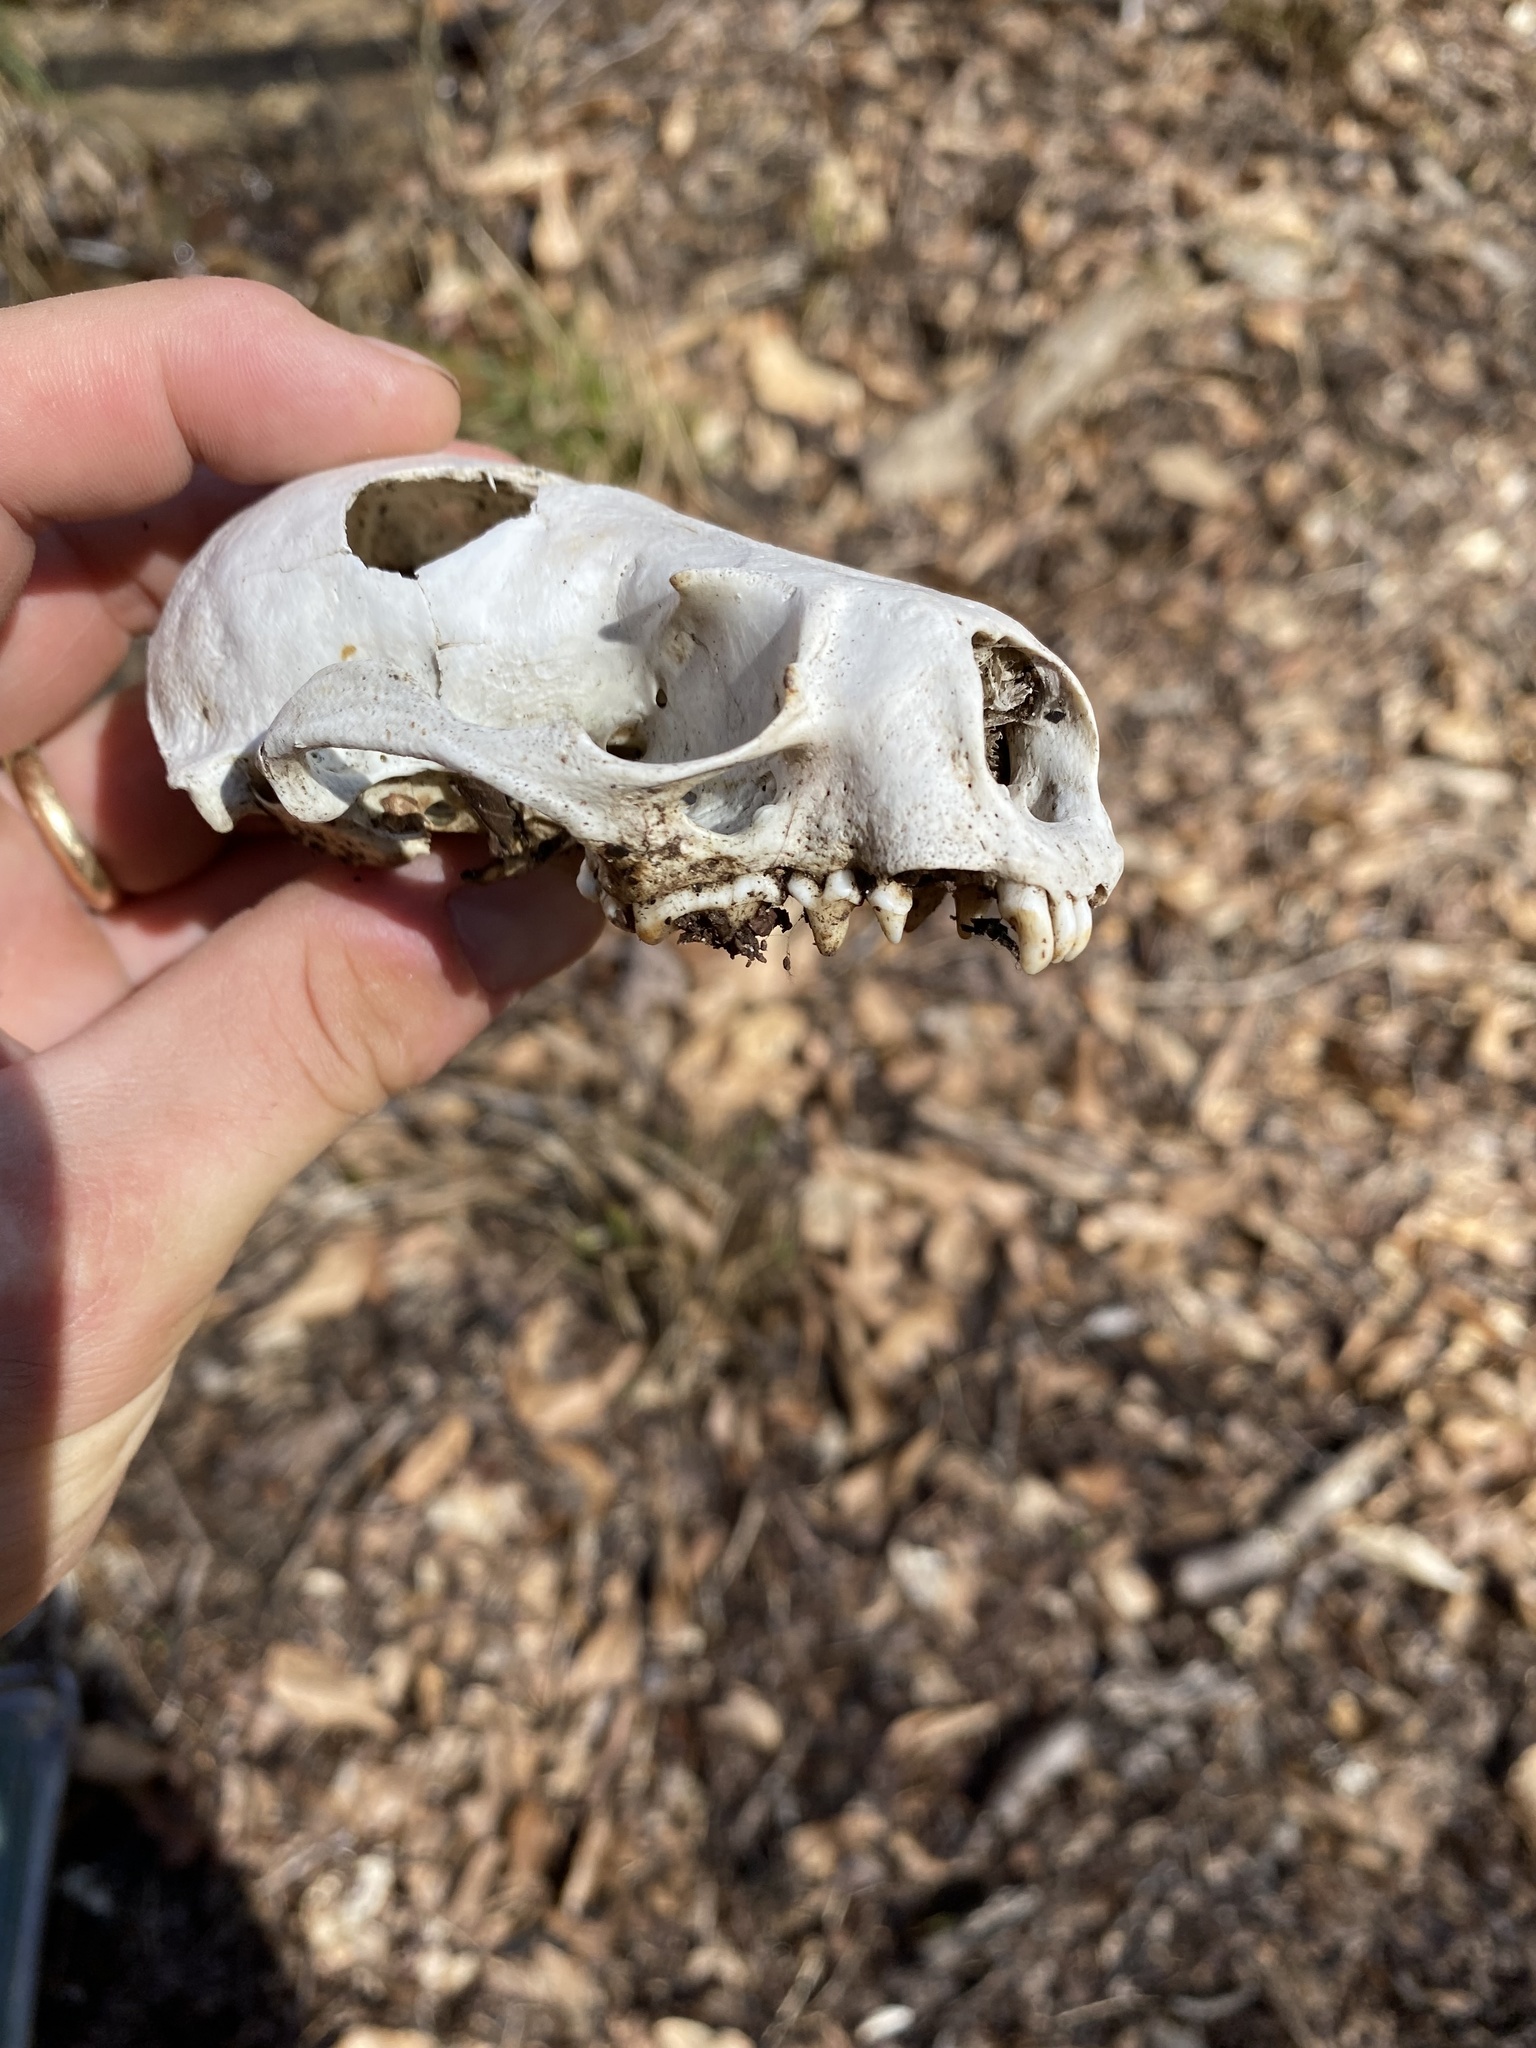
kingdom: Animalia
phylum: Chordata
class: Mammalia
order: Carnivora
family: Mustelidae
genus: Lontra
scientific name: Lontra canadensis
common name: North american river otter
